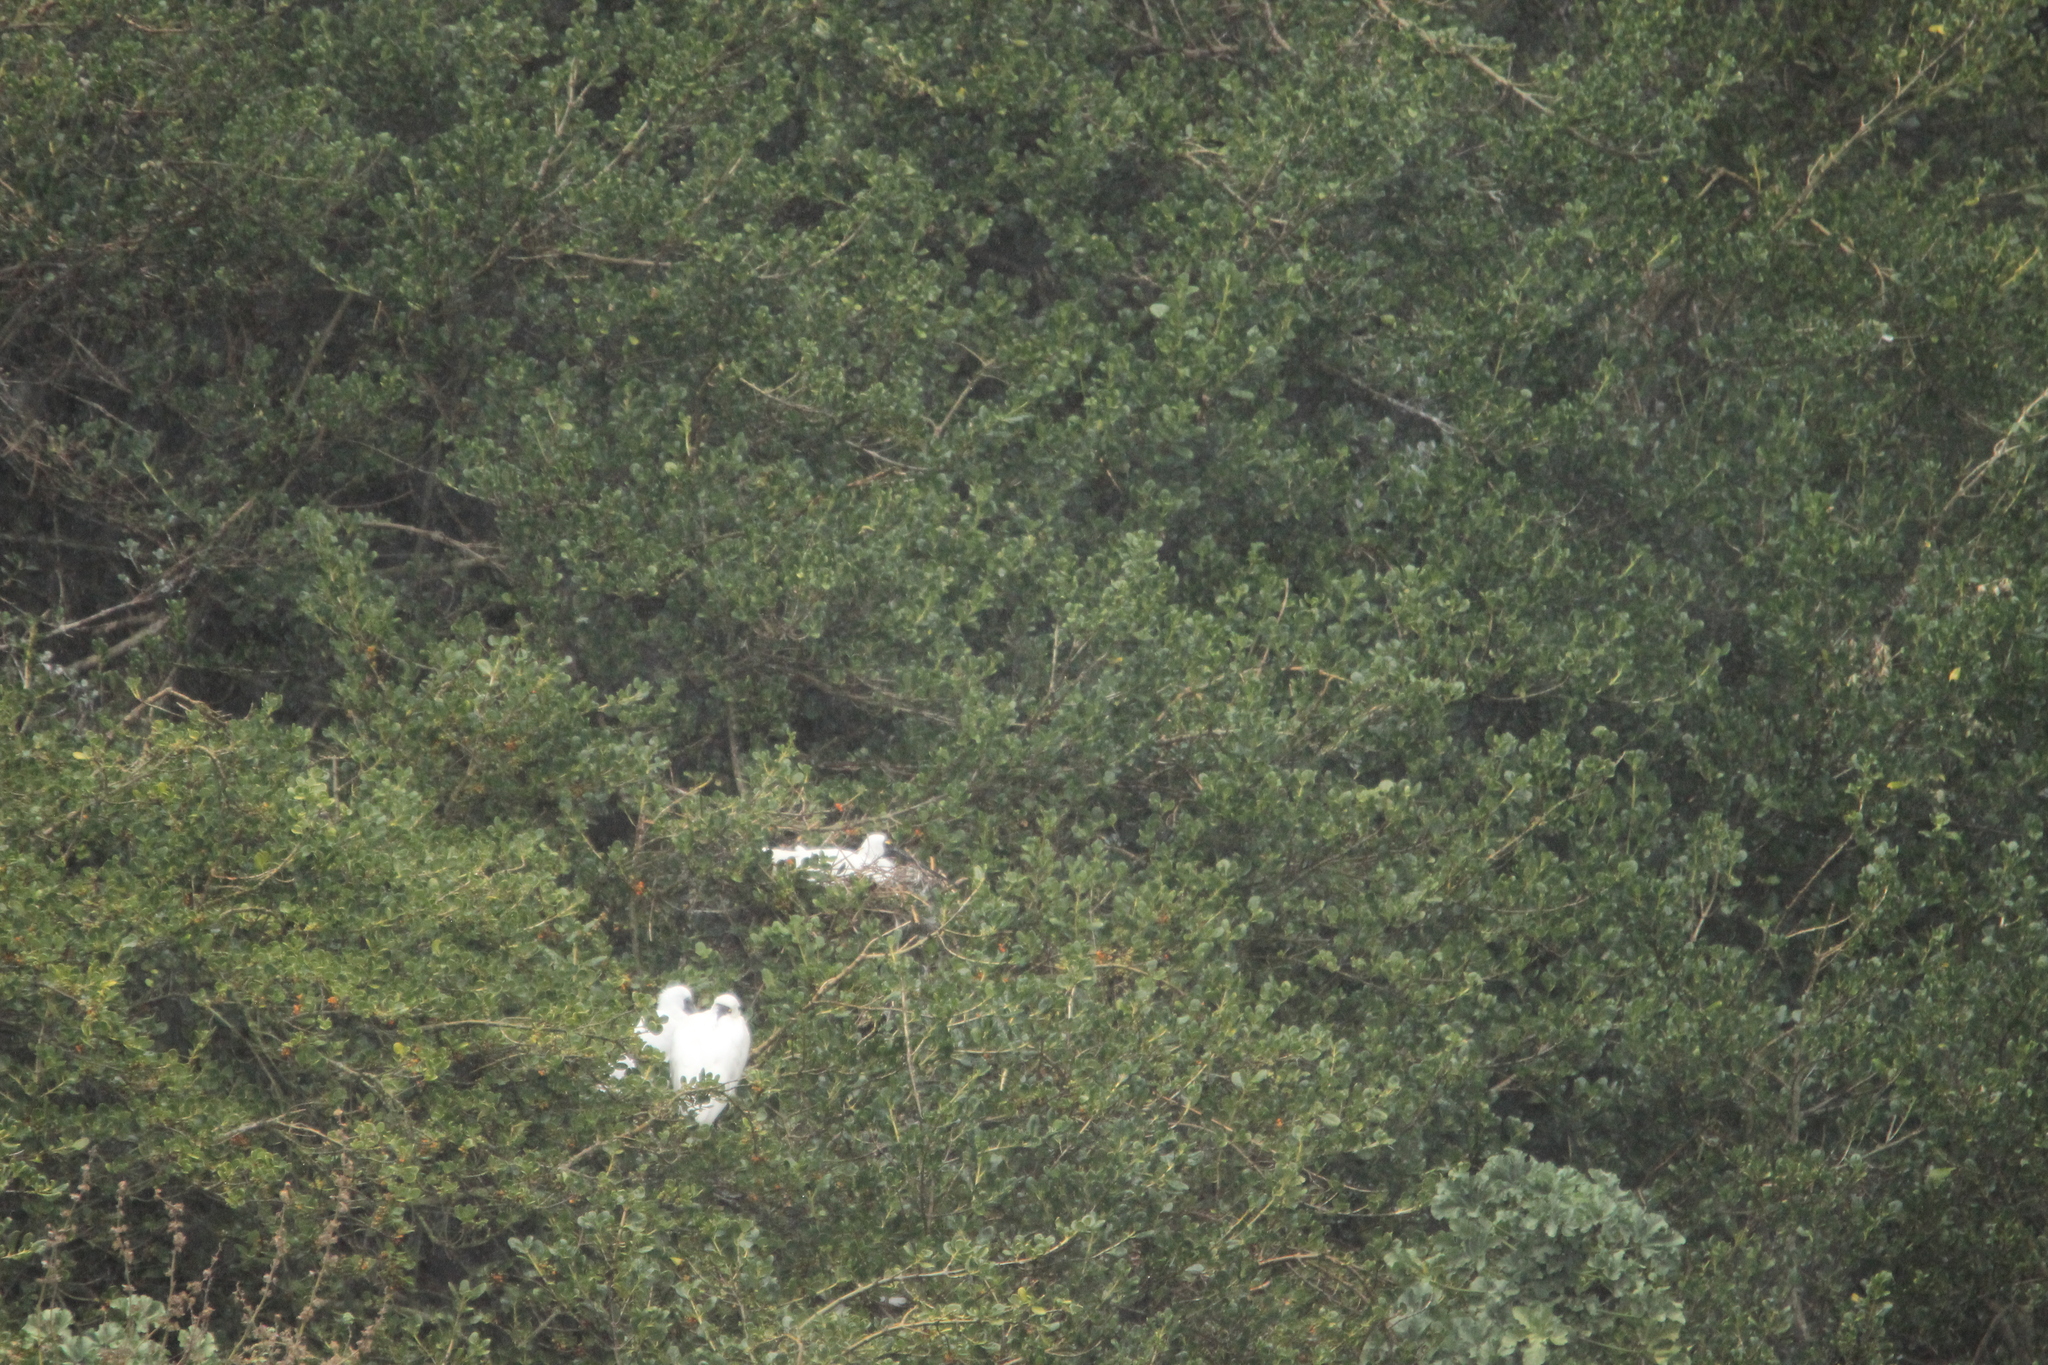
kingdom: Animalia
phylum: Chordata
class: Aves
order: Pelecaniformes
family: Threskiornithidae
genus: Platalea
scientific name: Platalea regia
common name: Royal spoonbill
